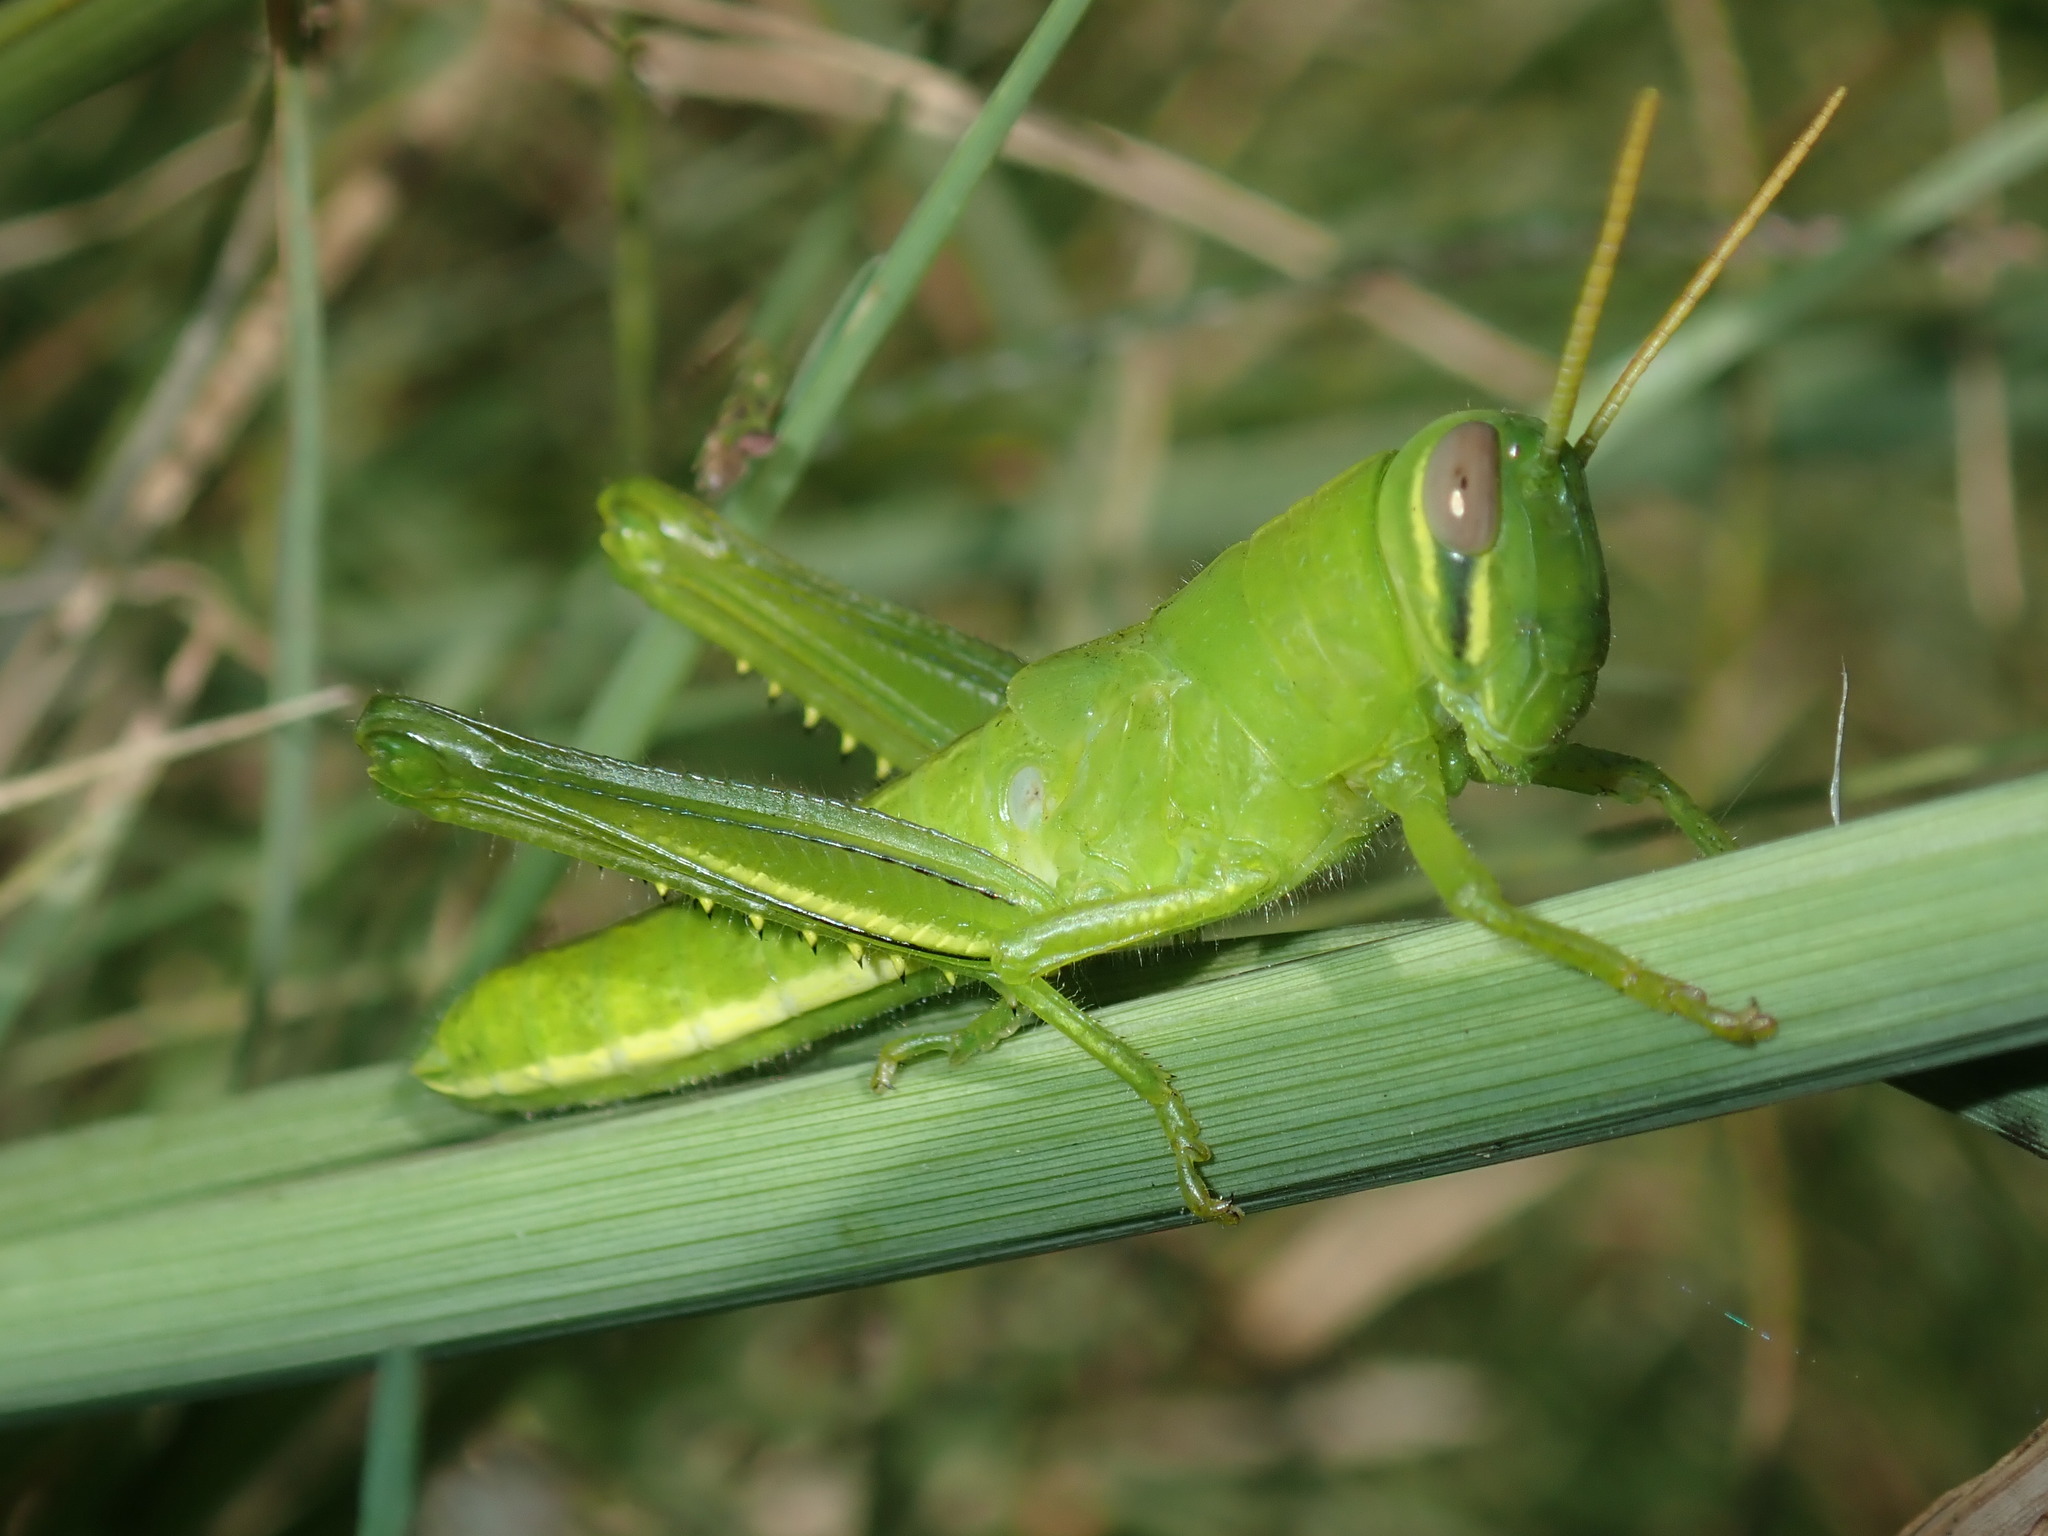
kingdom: Animalia
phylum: Arthropoda
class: Insecta
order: Orthoptera
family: Acrididae
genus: Austracris
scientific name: Austracris proxima
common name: Confusing spur-throated locust
